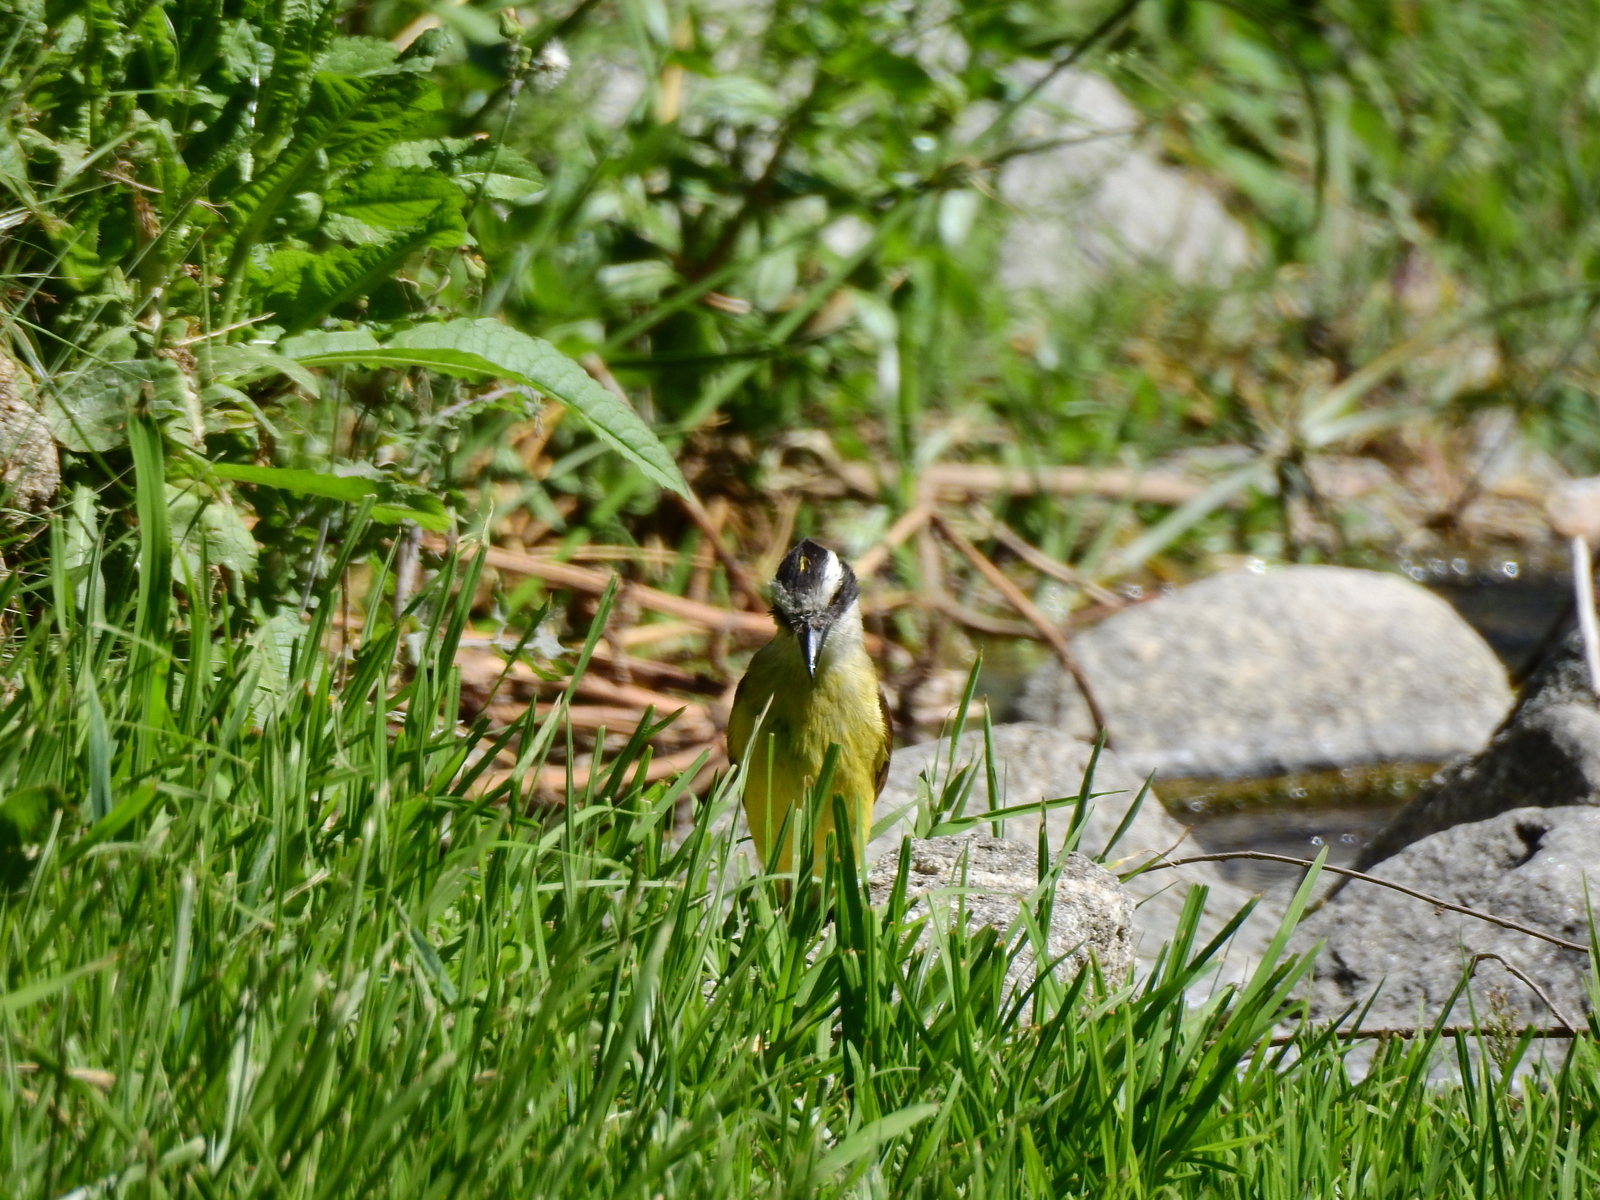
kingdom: Animalia
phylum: Chordata
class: Aves
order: Passeriformes
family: Tyrannidae
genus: Pitangus
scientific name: Pitangus sulphuratus
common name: Great kiskadee
